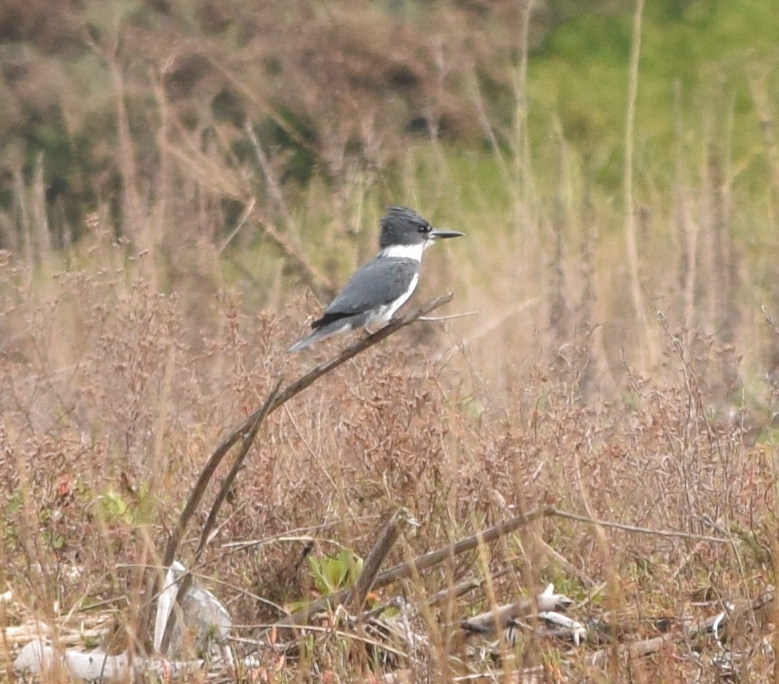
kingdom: Animalia
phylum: Chordata
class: Aves
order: Coraciiformes
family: Alcedinidae
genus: Megaceryle
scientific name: Megaceryle alcyon
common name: Belted kingfisher
